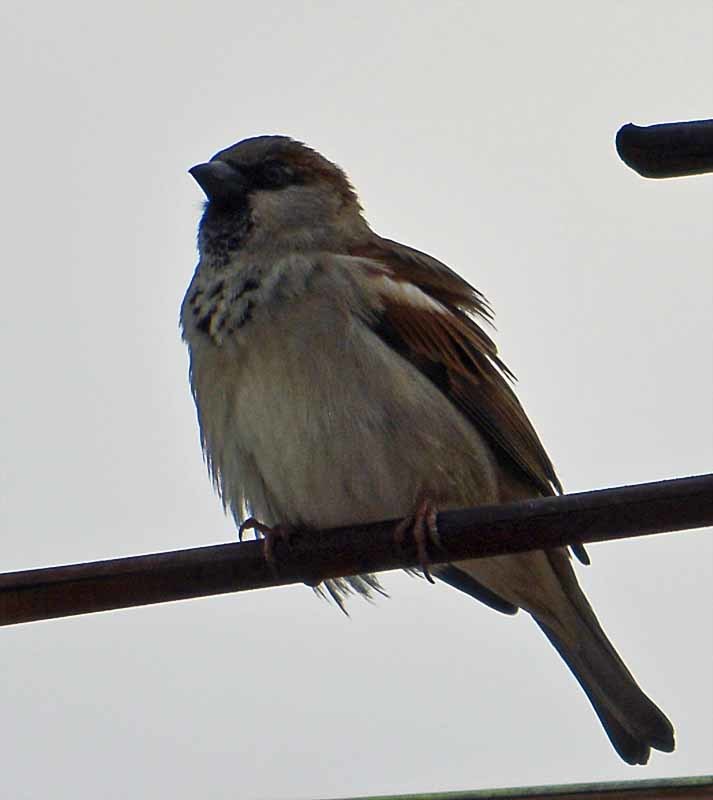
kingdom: Animalia
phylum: Chordata
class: Aves
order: Passeriformes
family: Passeridae
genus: Passer
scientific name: Passer domesticus
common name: House sparrow
